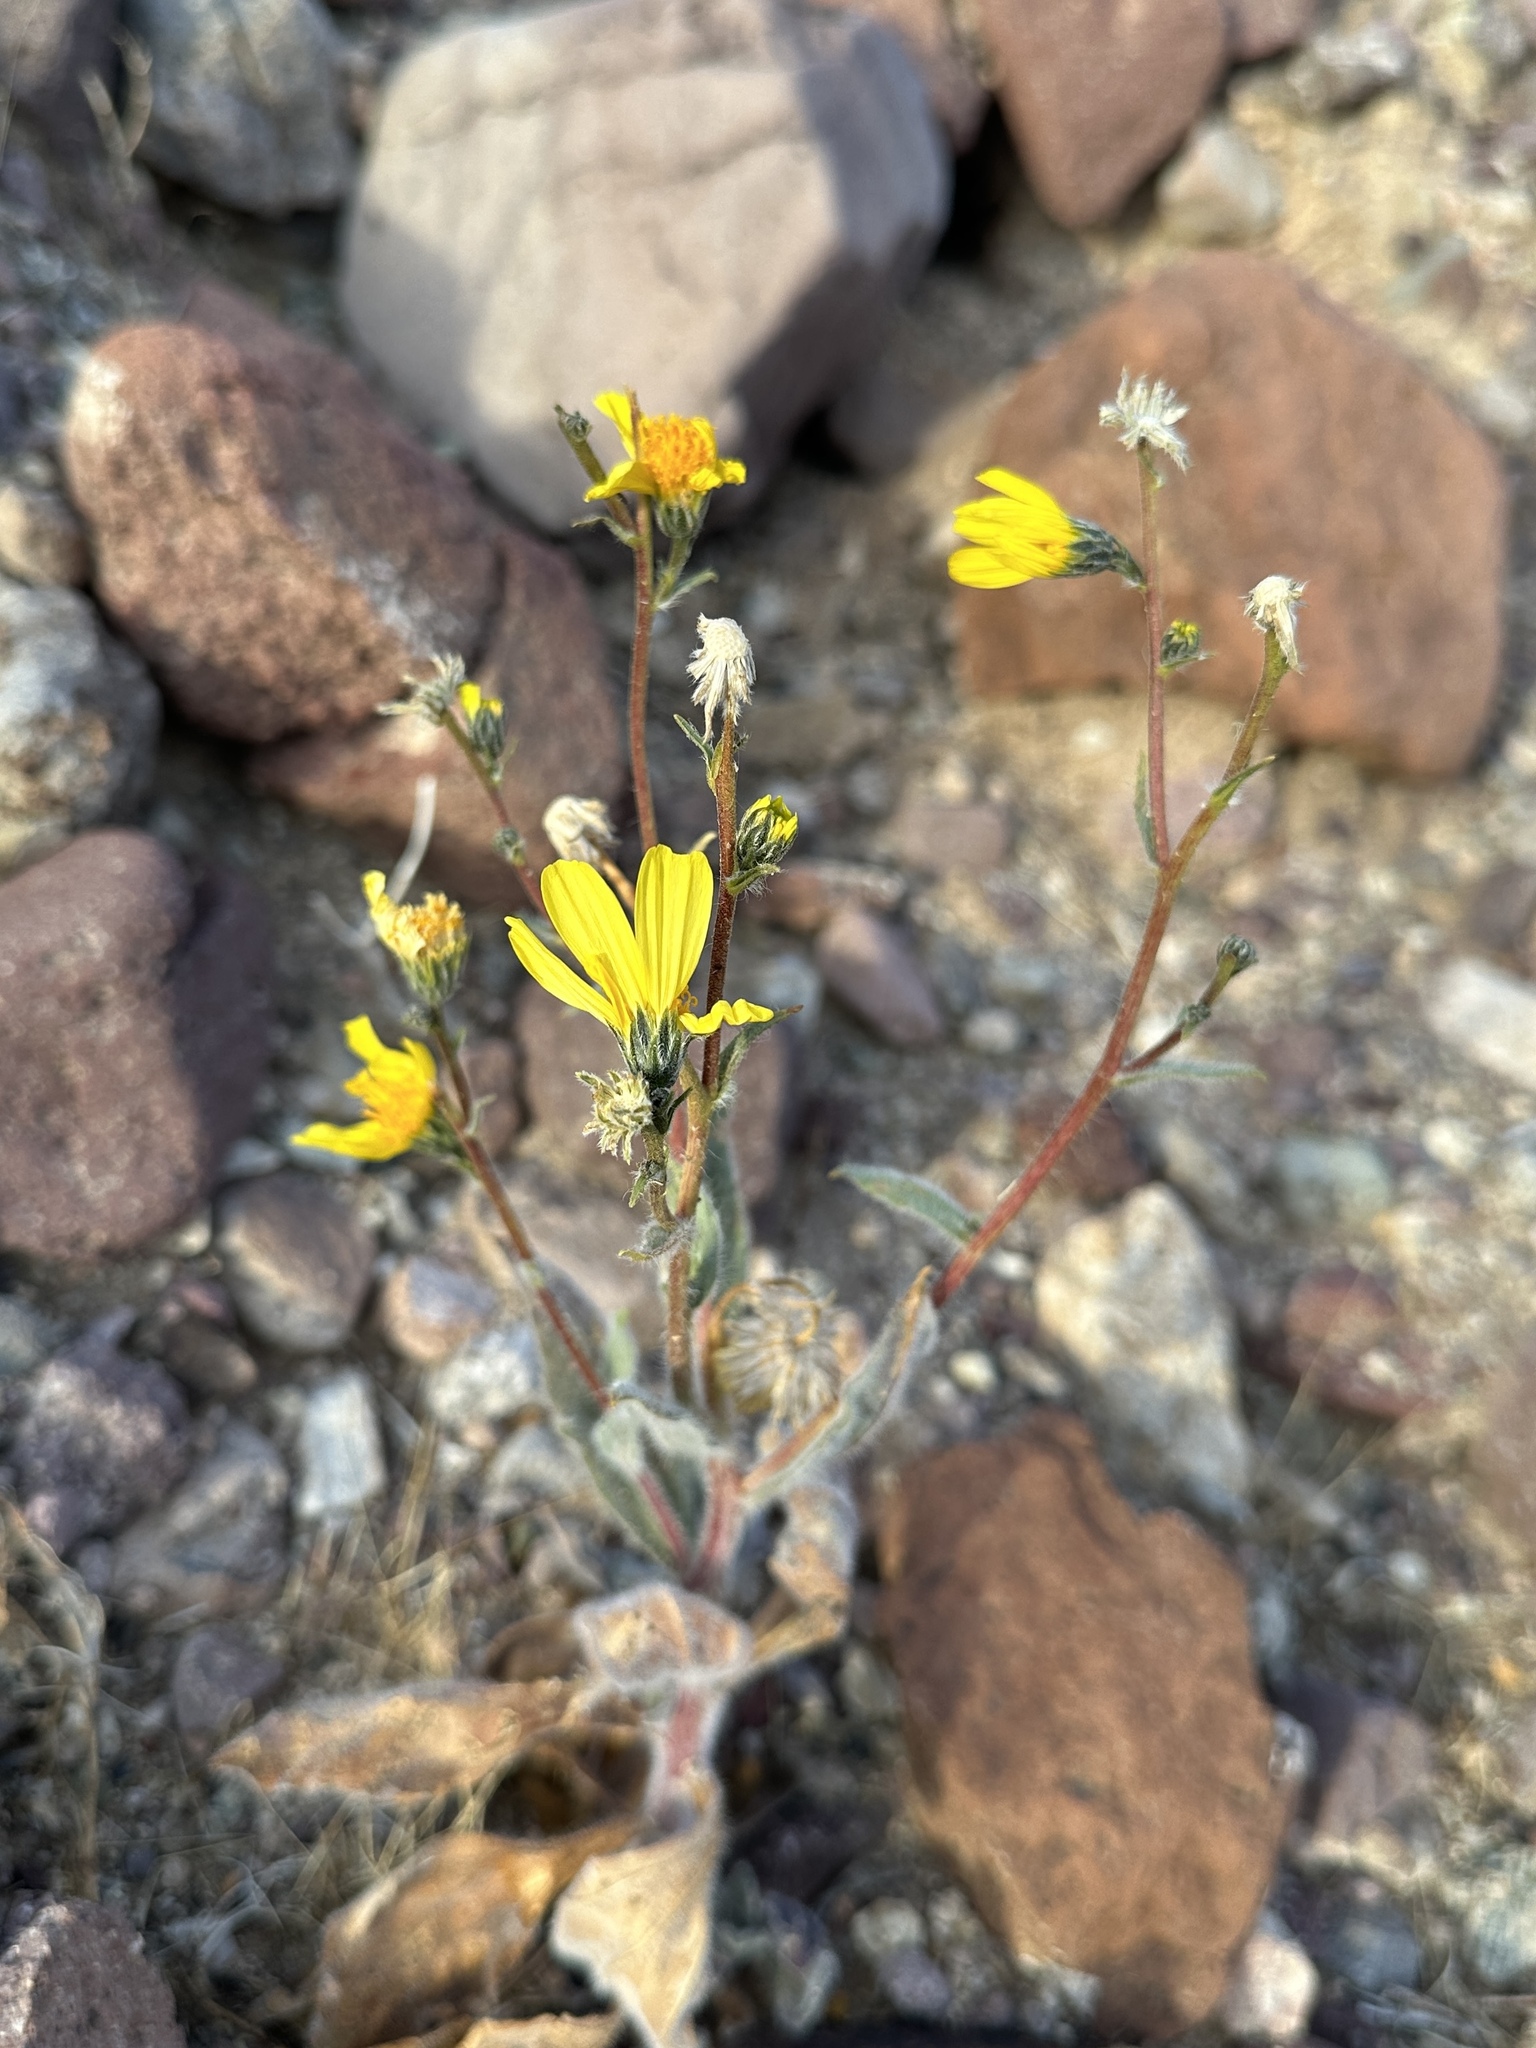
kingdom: Plantae
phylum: Tracheophyta
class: Magnoliopsida
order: Asterales
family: Asteraceae
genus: Geraea
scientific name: Geraea canescens
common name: Desert-gold
